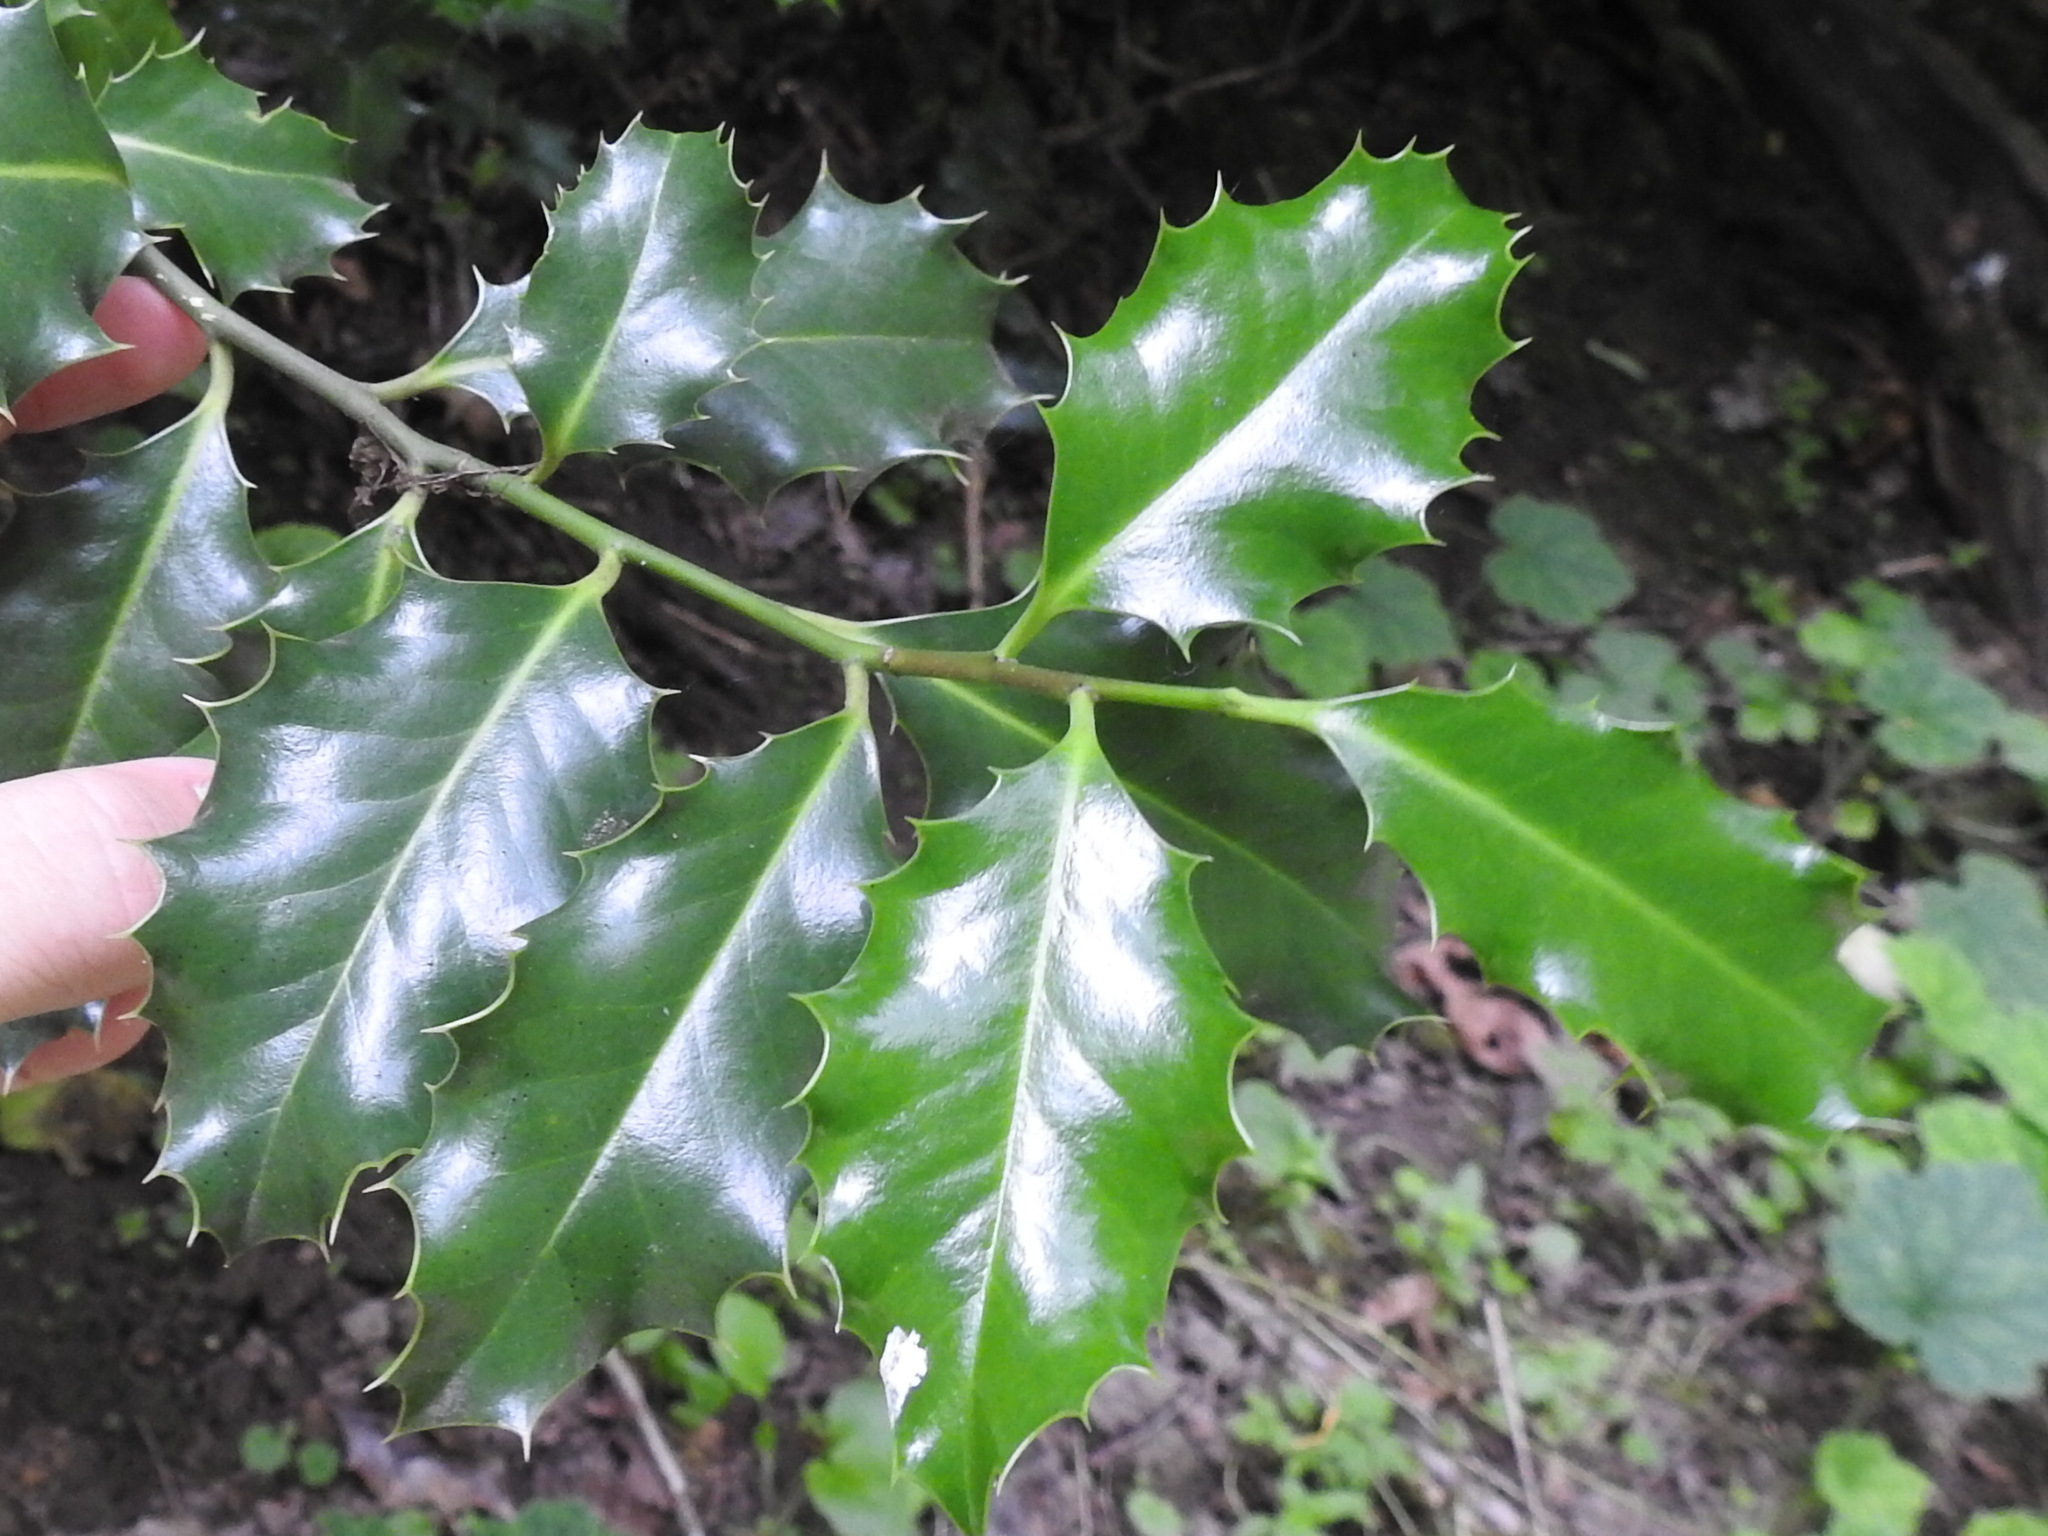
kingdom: Plantae
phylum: Tracheophyta
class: Magnoliopsida
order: Aquifoliales
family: Aquifoliaceae
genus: Ilex
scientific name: Ilex aquifolium
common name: English holly
